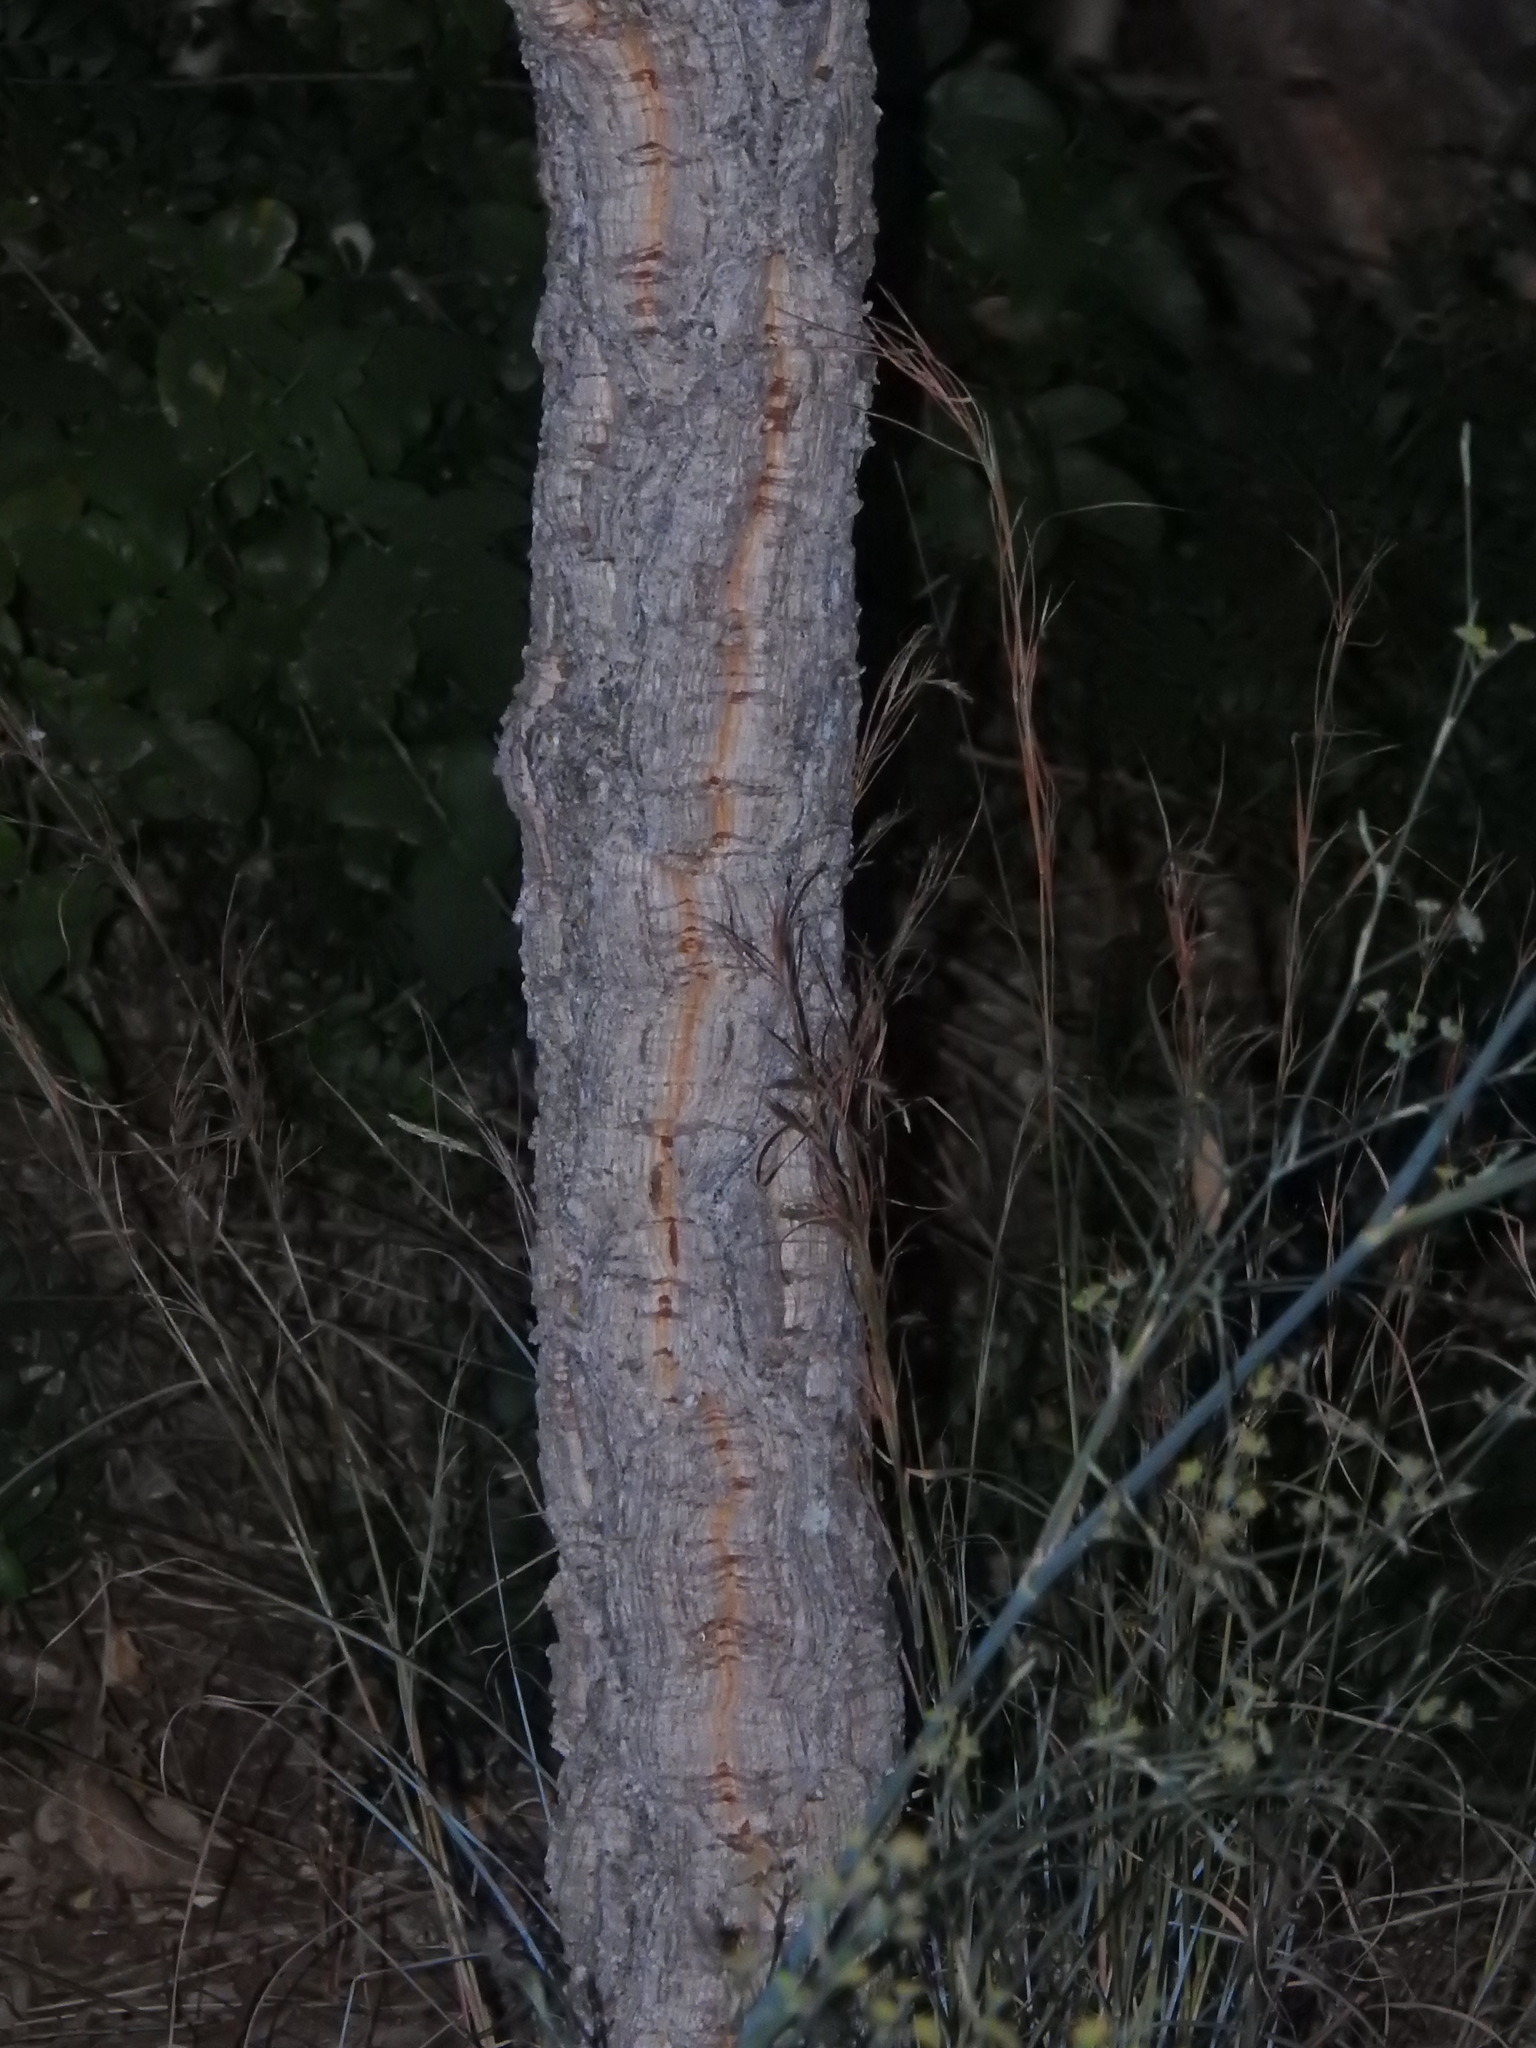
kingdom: Plantae
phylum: Tracheophyta
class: Magnoliopsida
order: Fagales
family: Fagaceae
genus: Quercus
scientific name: Quercus suber
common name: Cork oak
